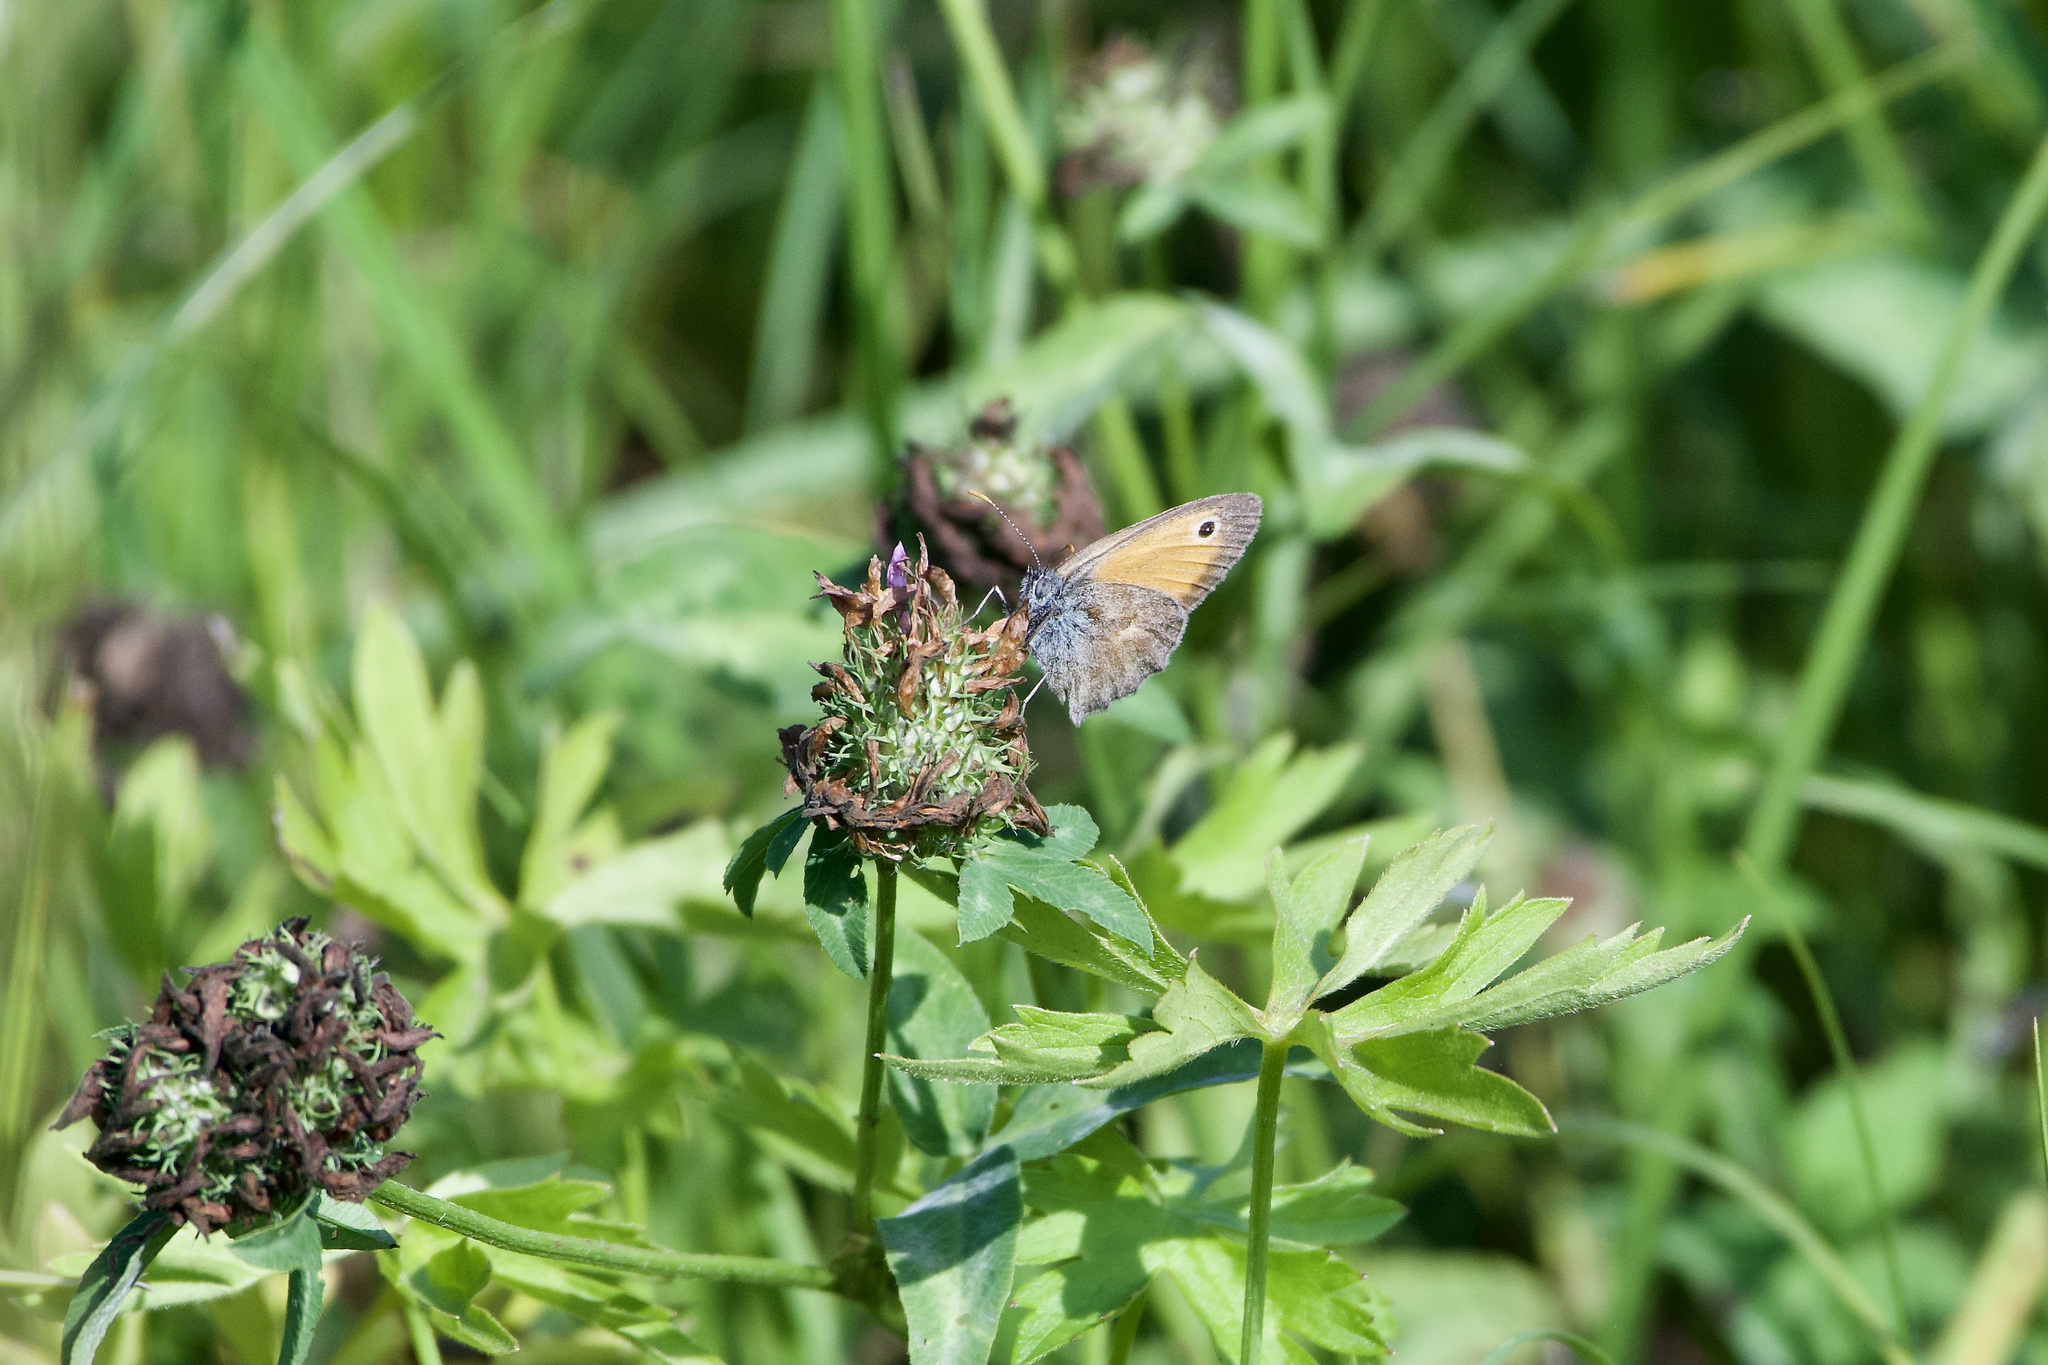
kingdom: Animalia
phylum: Arthropoda
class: Insecta
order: Lepidoptera
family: Nymphalidae
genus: Coenonympha
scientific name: Coenonympha pamphilus
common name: Small heath
